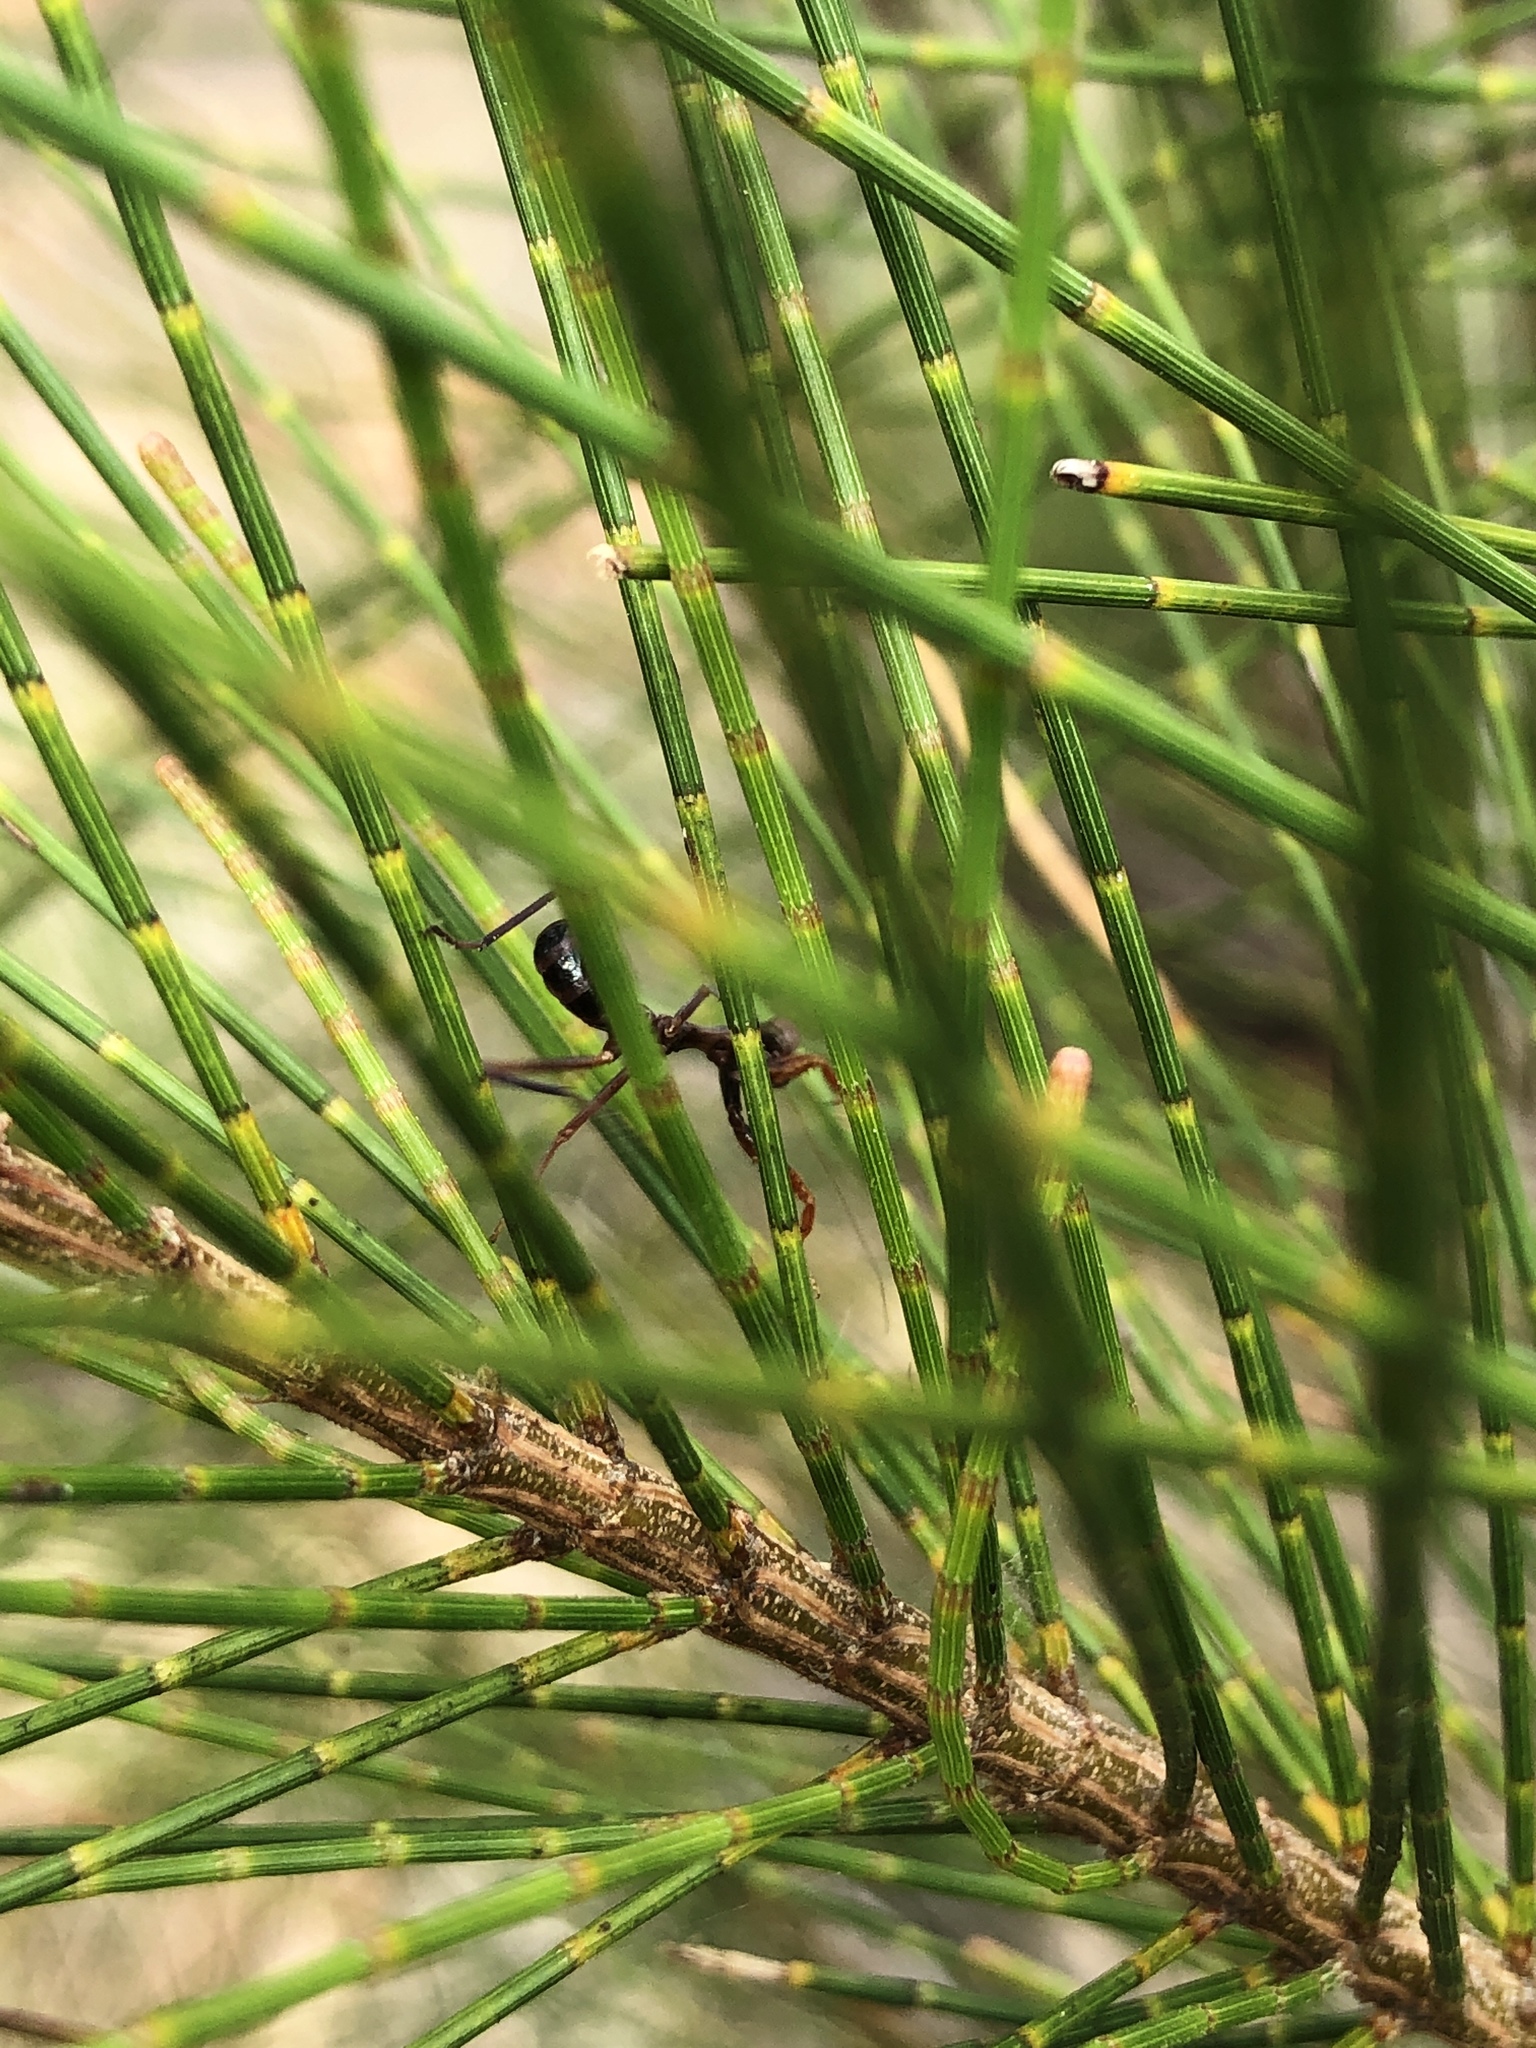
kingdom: Animalia
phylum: Arthropoda
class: Insecta
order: Mantodea
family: Mantidae
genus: Sphodropoda
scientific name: Sphodropoda tristis
